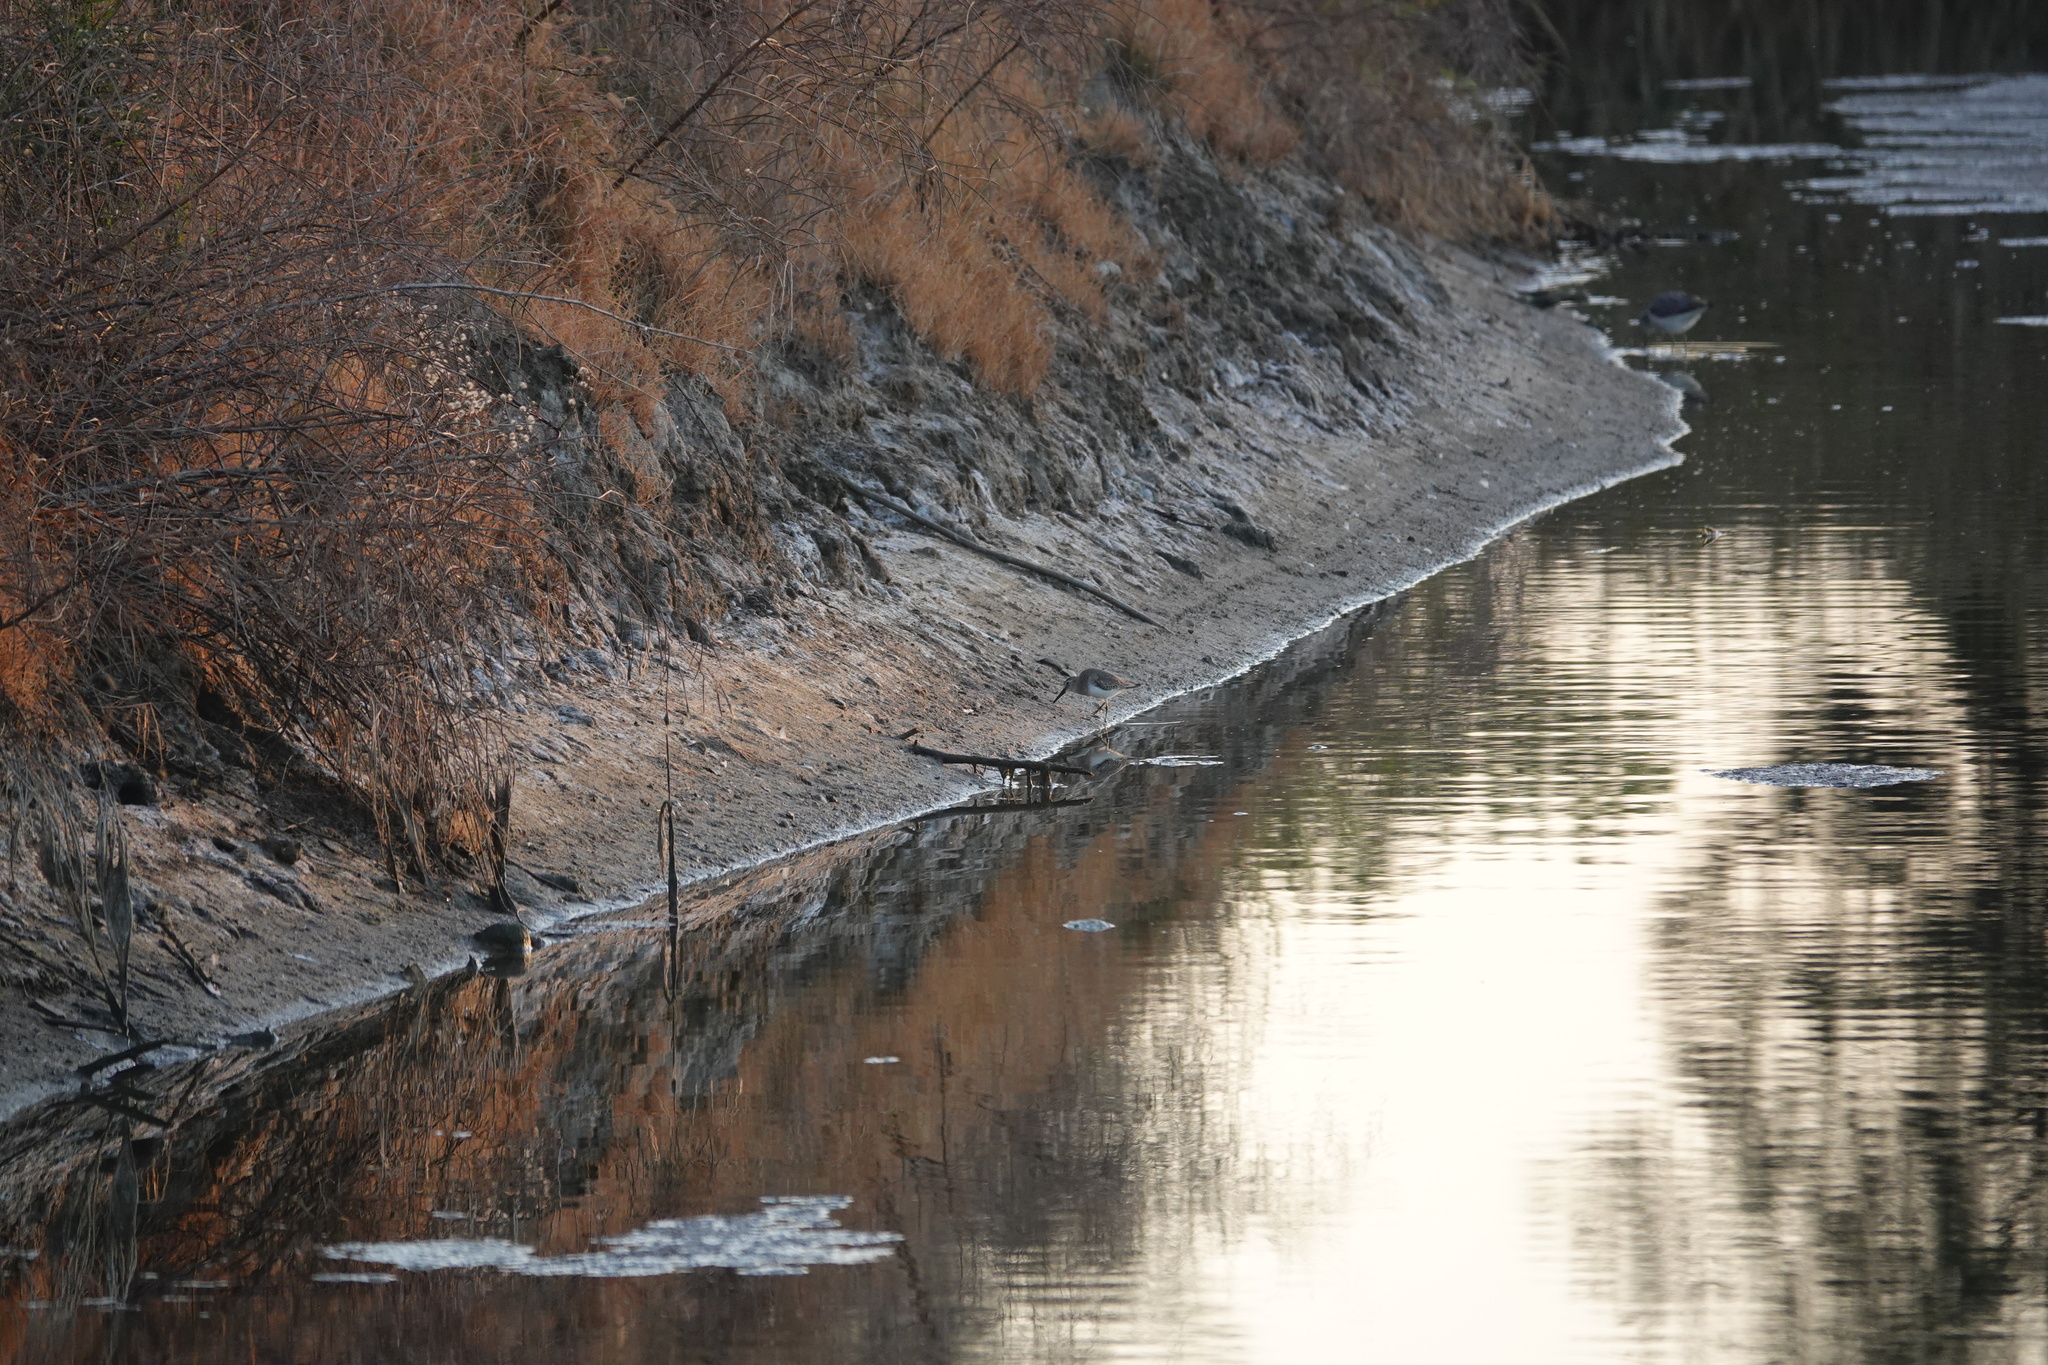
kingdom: Animalia
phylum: Chordata
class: Aves
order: Charadriiformes
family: Scolopacidae
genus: Calidris
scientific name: Calidris alpina
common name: Dunlin
